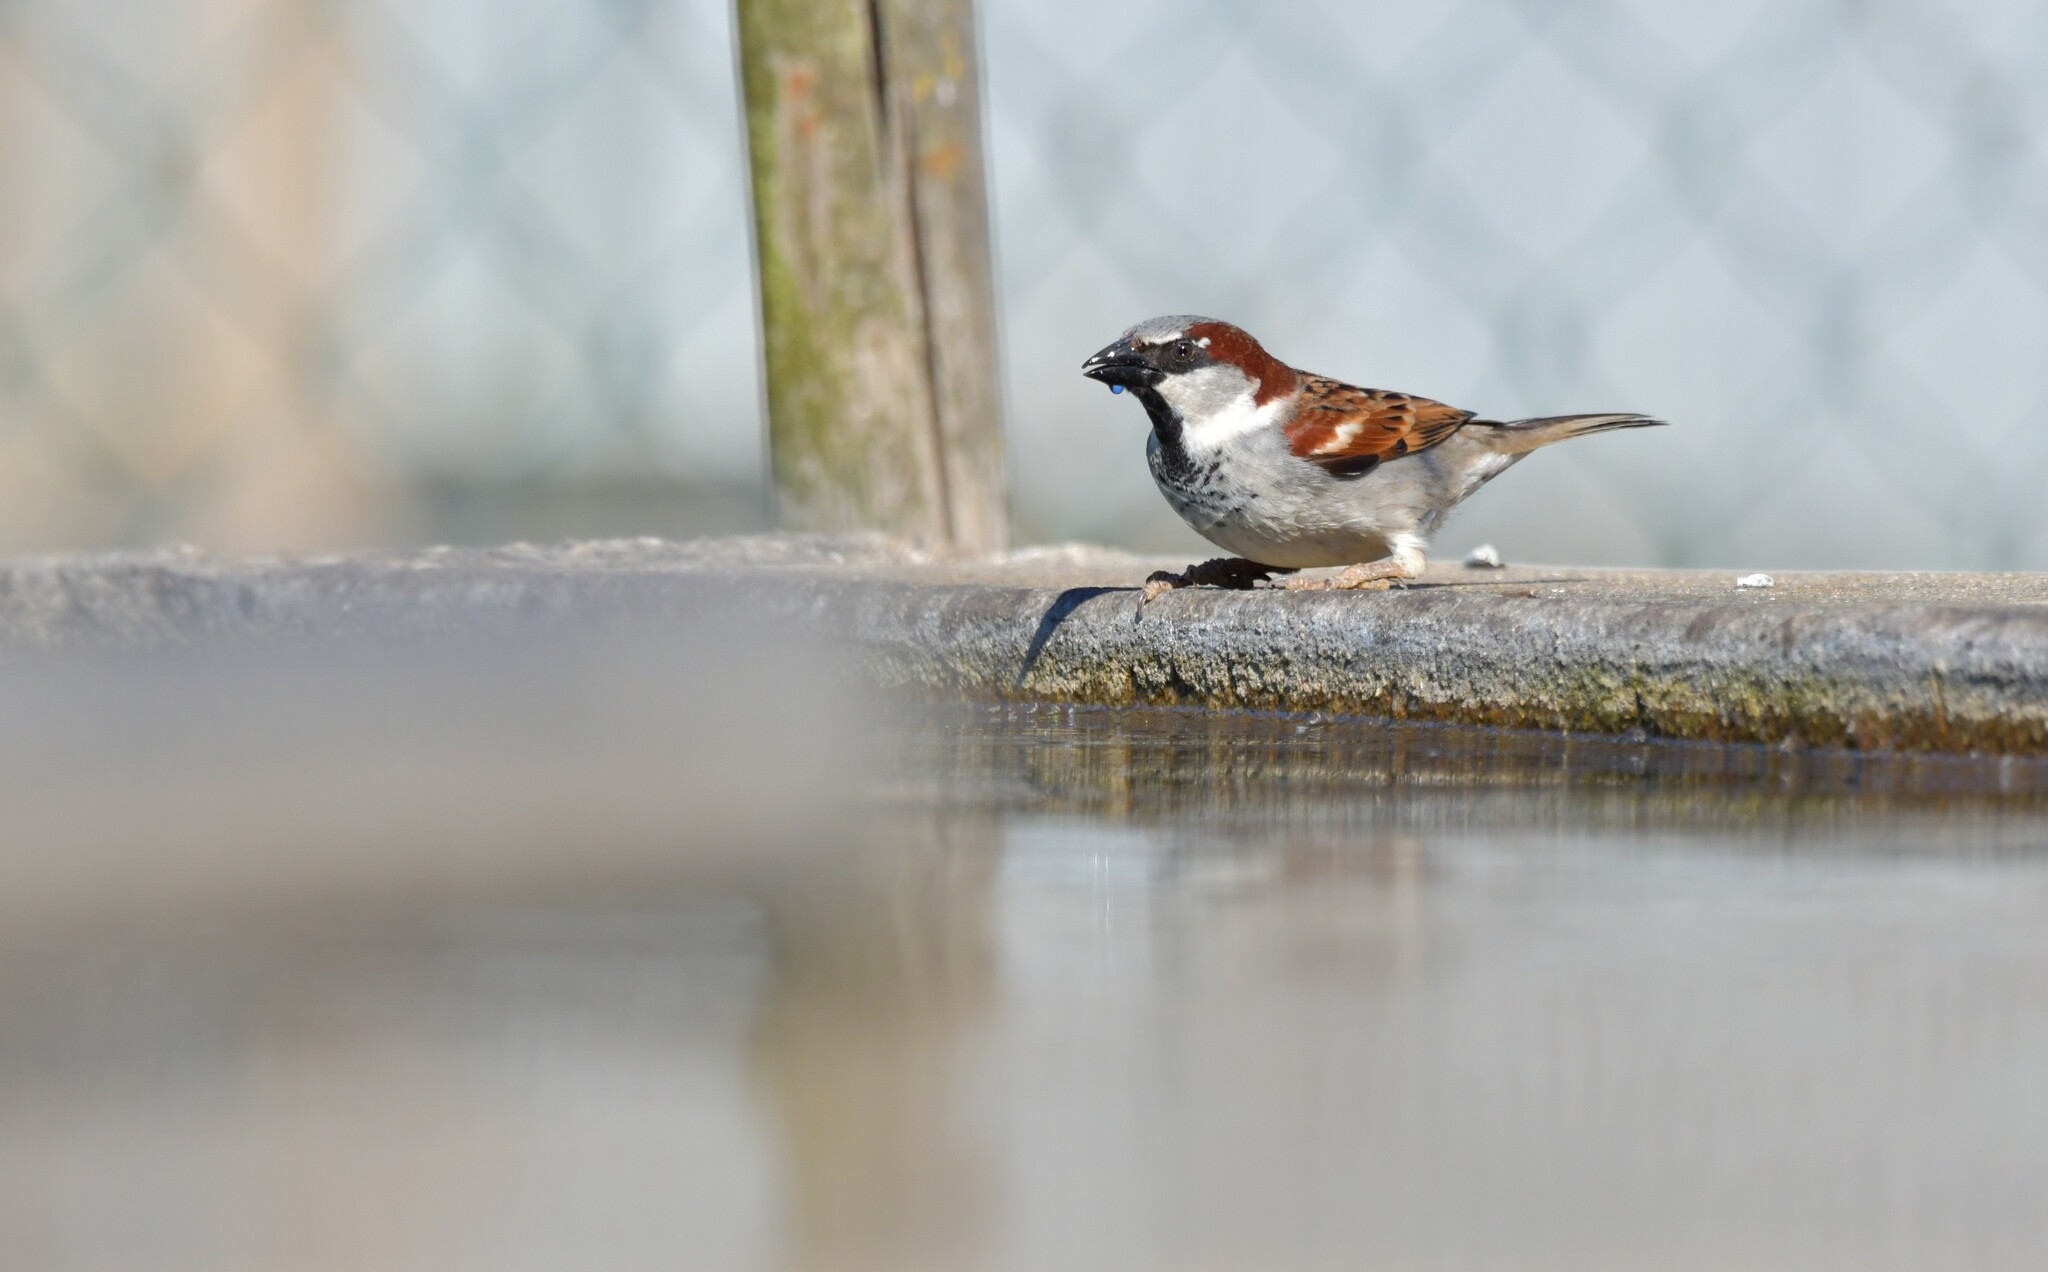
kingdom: Animalia
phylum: Chordata
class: Aves
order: Passeriformes
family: Passeridae
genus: Passer
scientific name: Passer domesticus
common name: House sparrow
